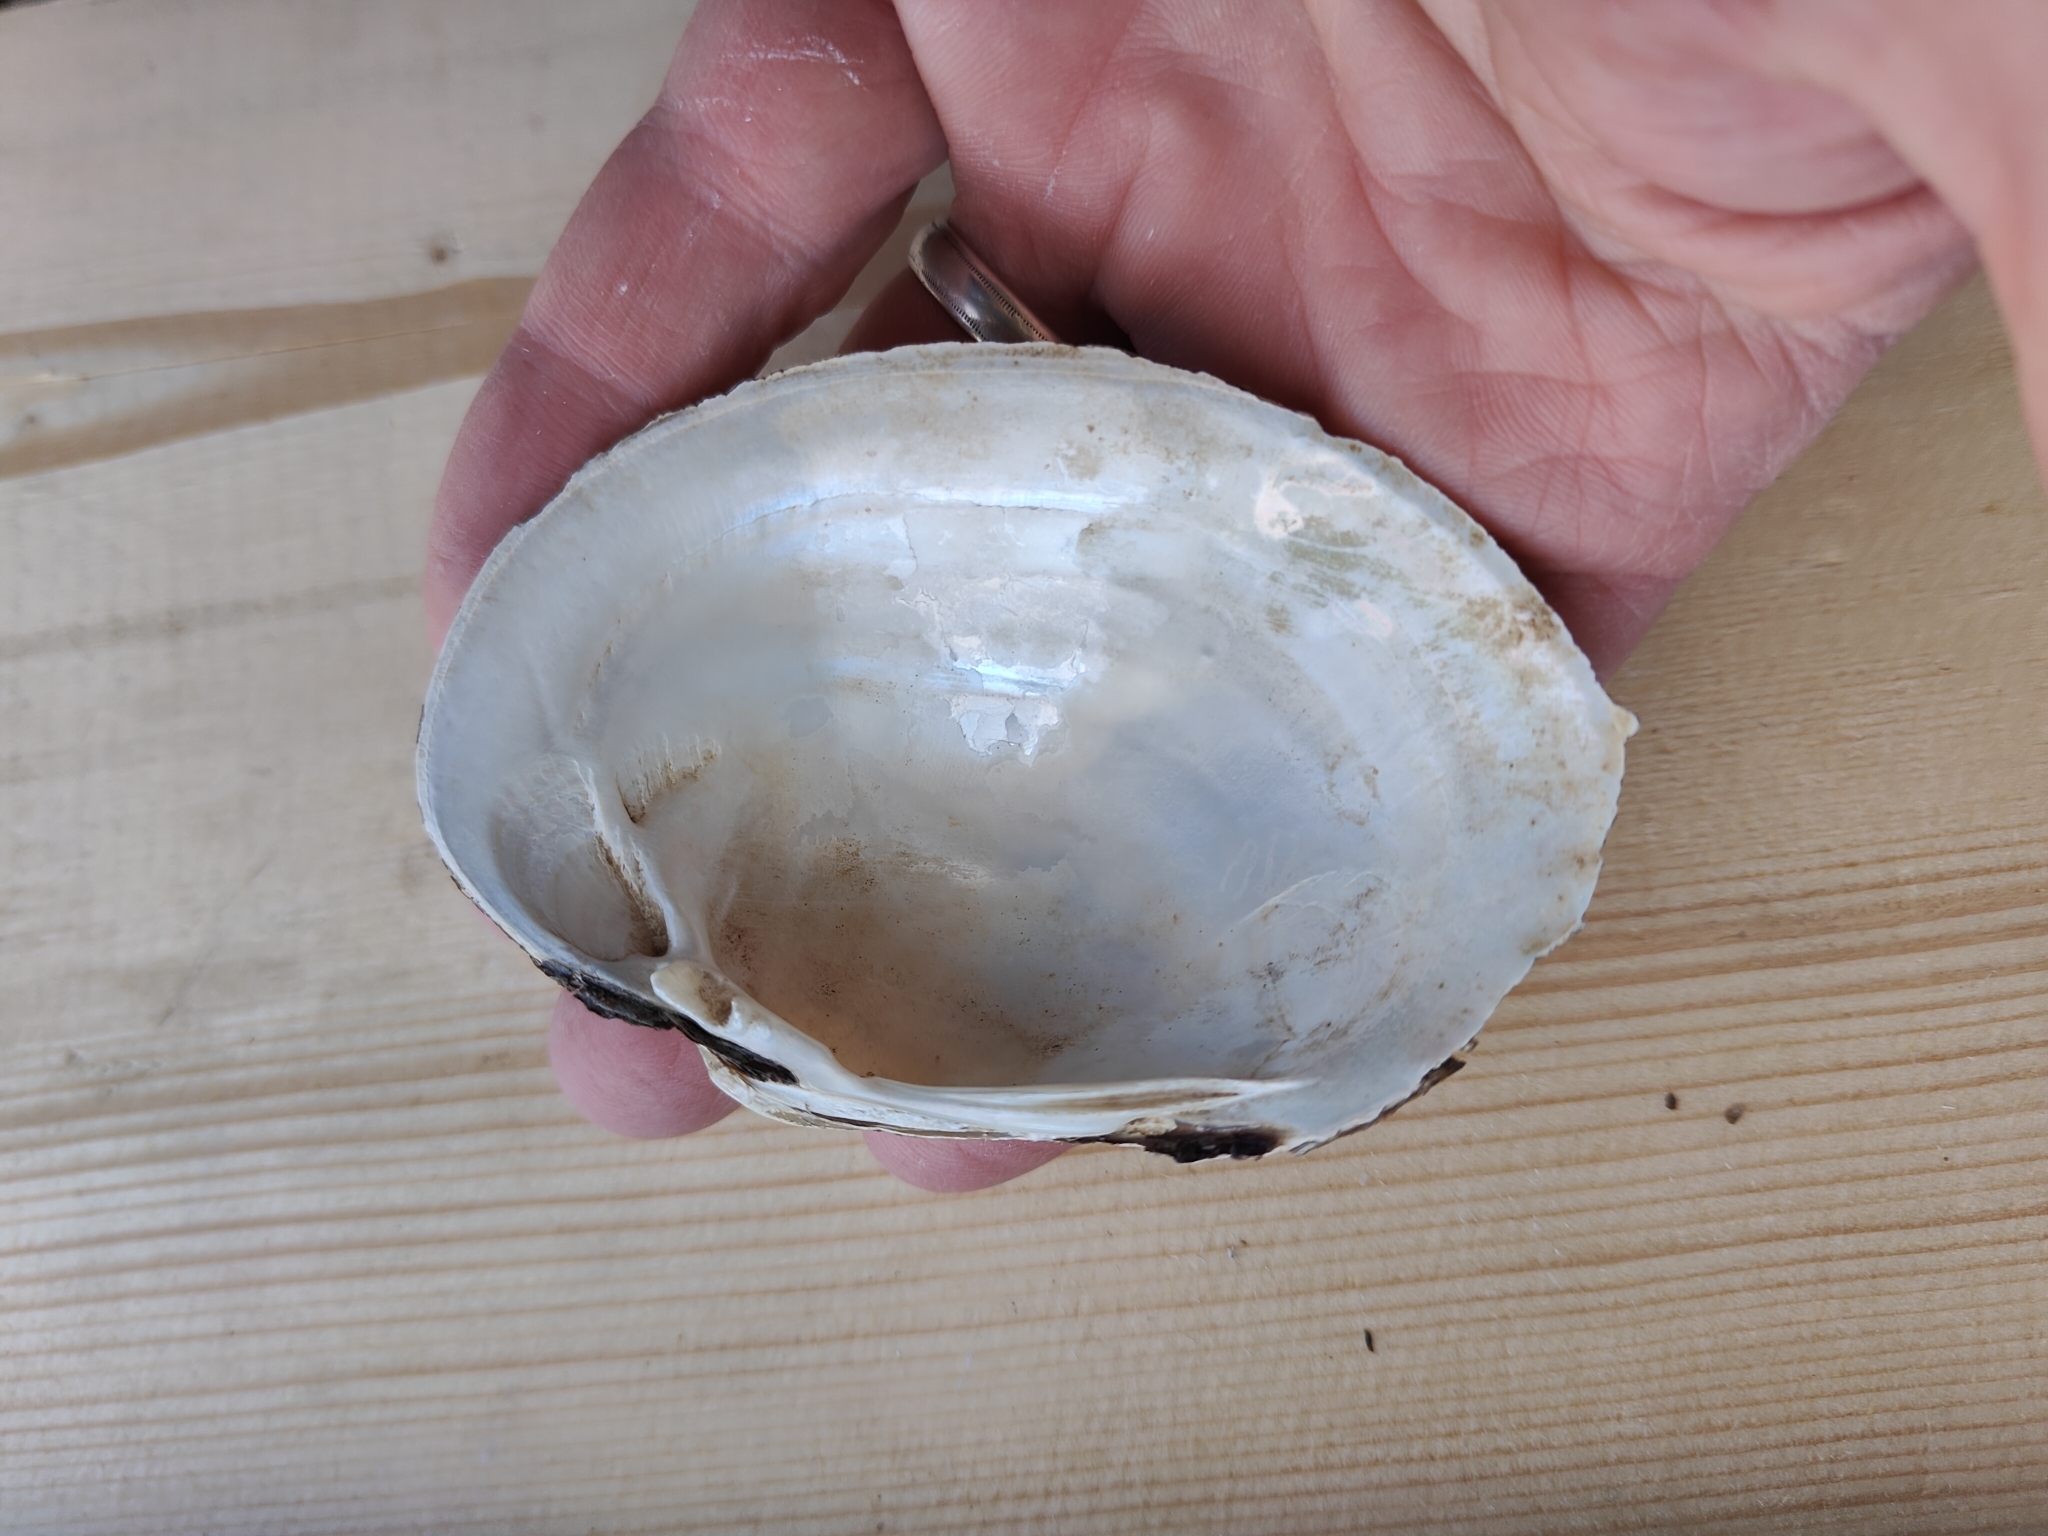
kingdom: Animalia
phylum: Mollusca
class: Bivalvia
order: Unionida
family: Unionidae
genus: Lampsilis
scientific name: Lampsilis cardium
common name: Plain pocketbook
